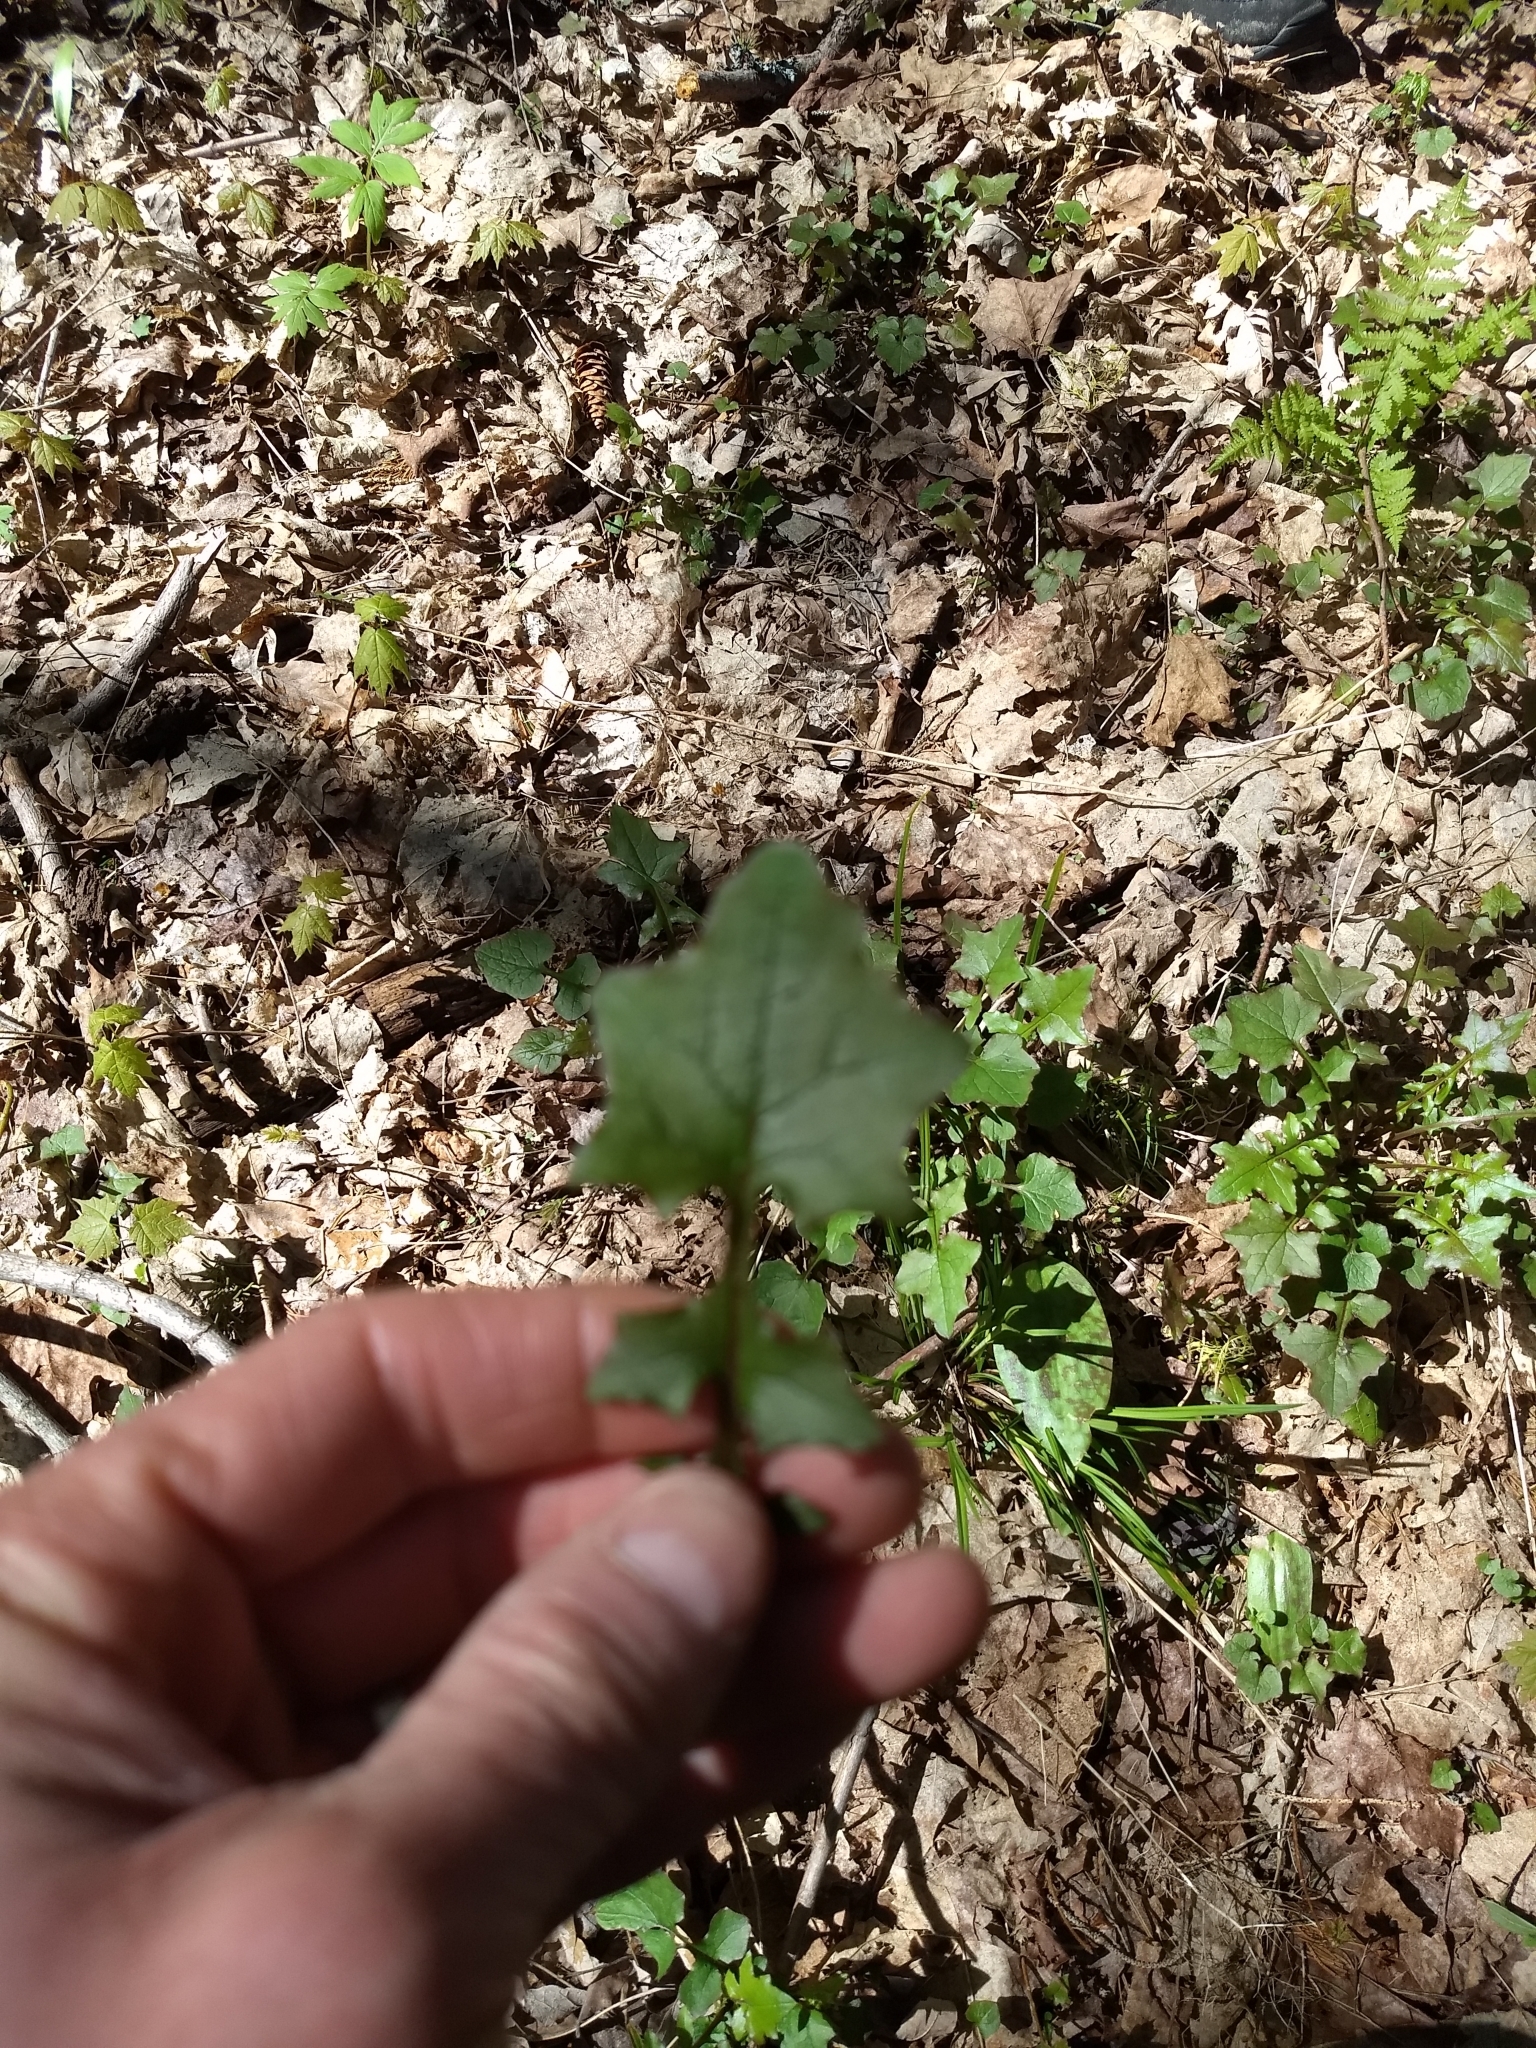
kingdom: Plantae
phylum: Tracheophyta
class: Magnoliopsida
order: Asterales
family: Asteraceae
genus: Mycelis
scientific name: Mycelis muralis
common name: Wall lettuce
